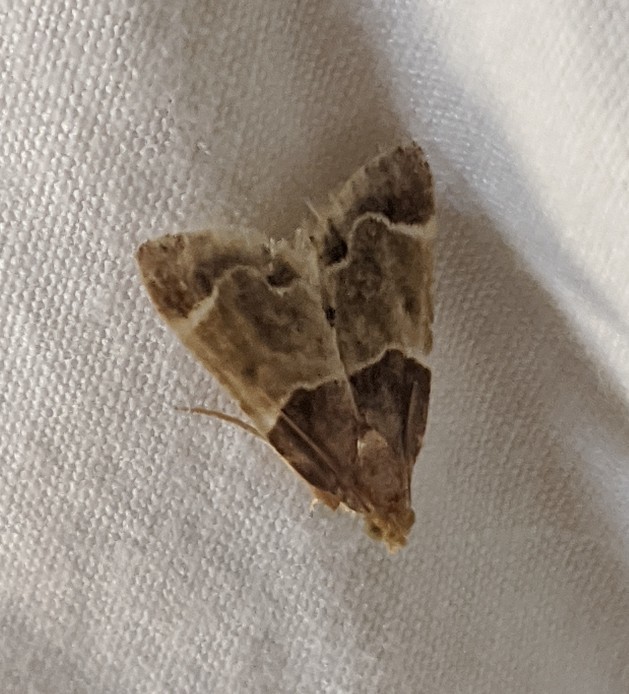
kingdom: Animalia
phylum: Arthropoda
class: Insecta
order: Lepidoptera
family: Pyralidae
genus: Pyralis
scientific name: Pyralis farinalis
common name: Meal moth
